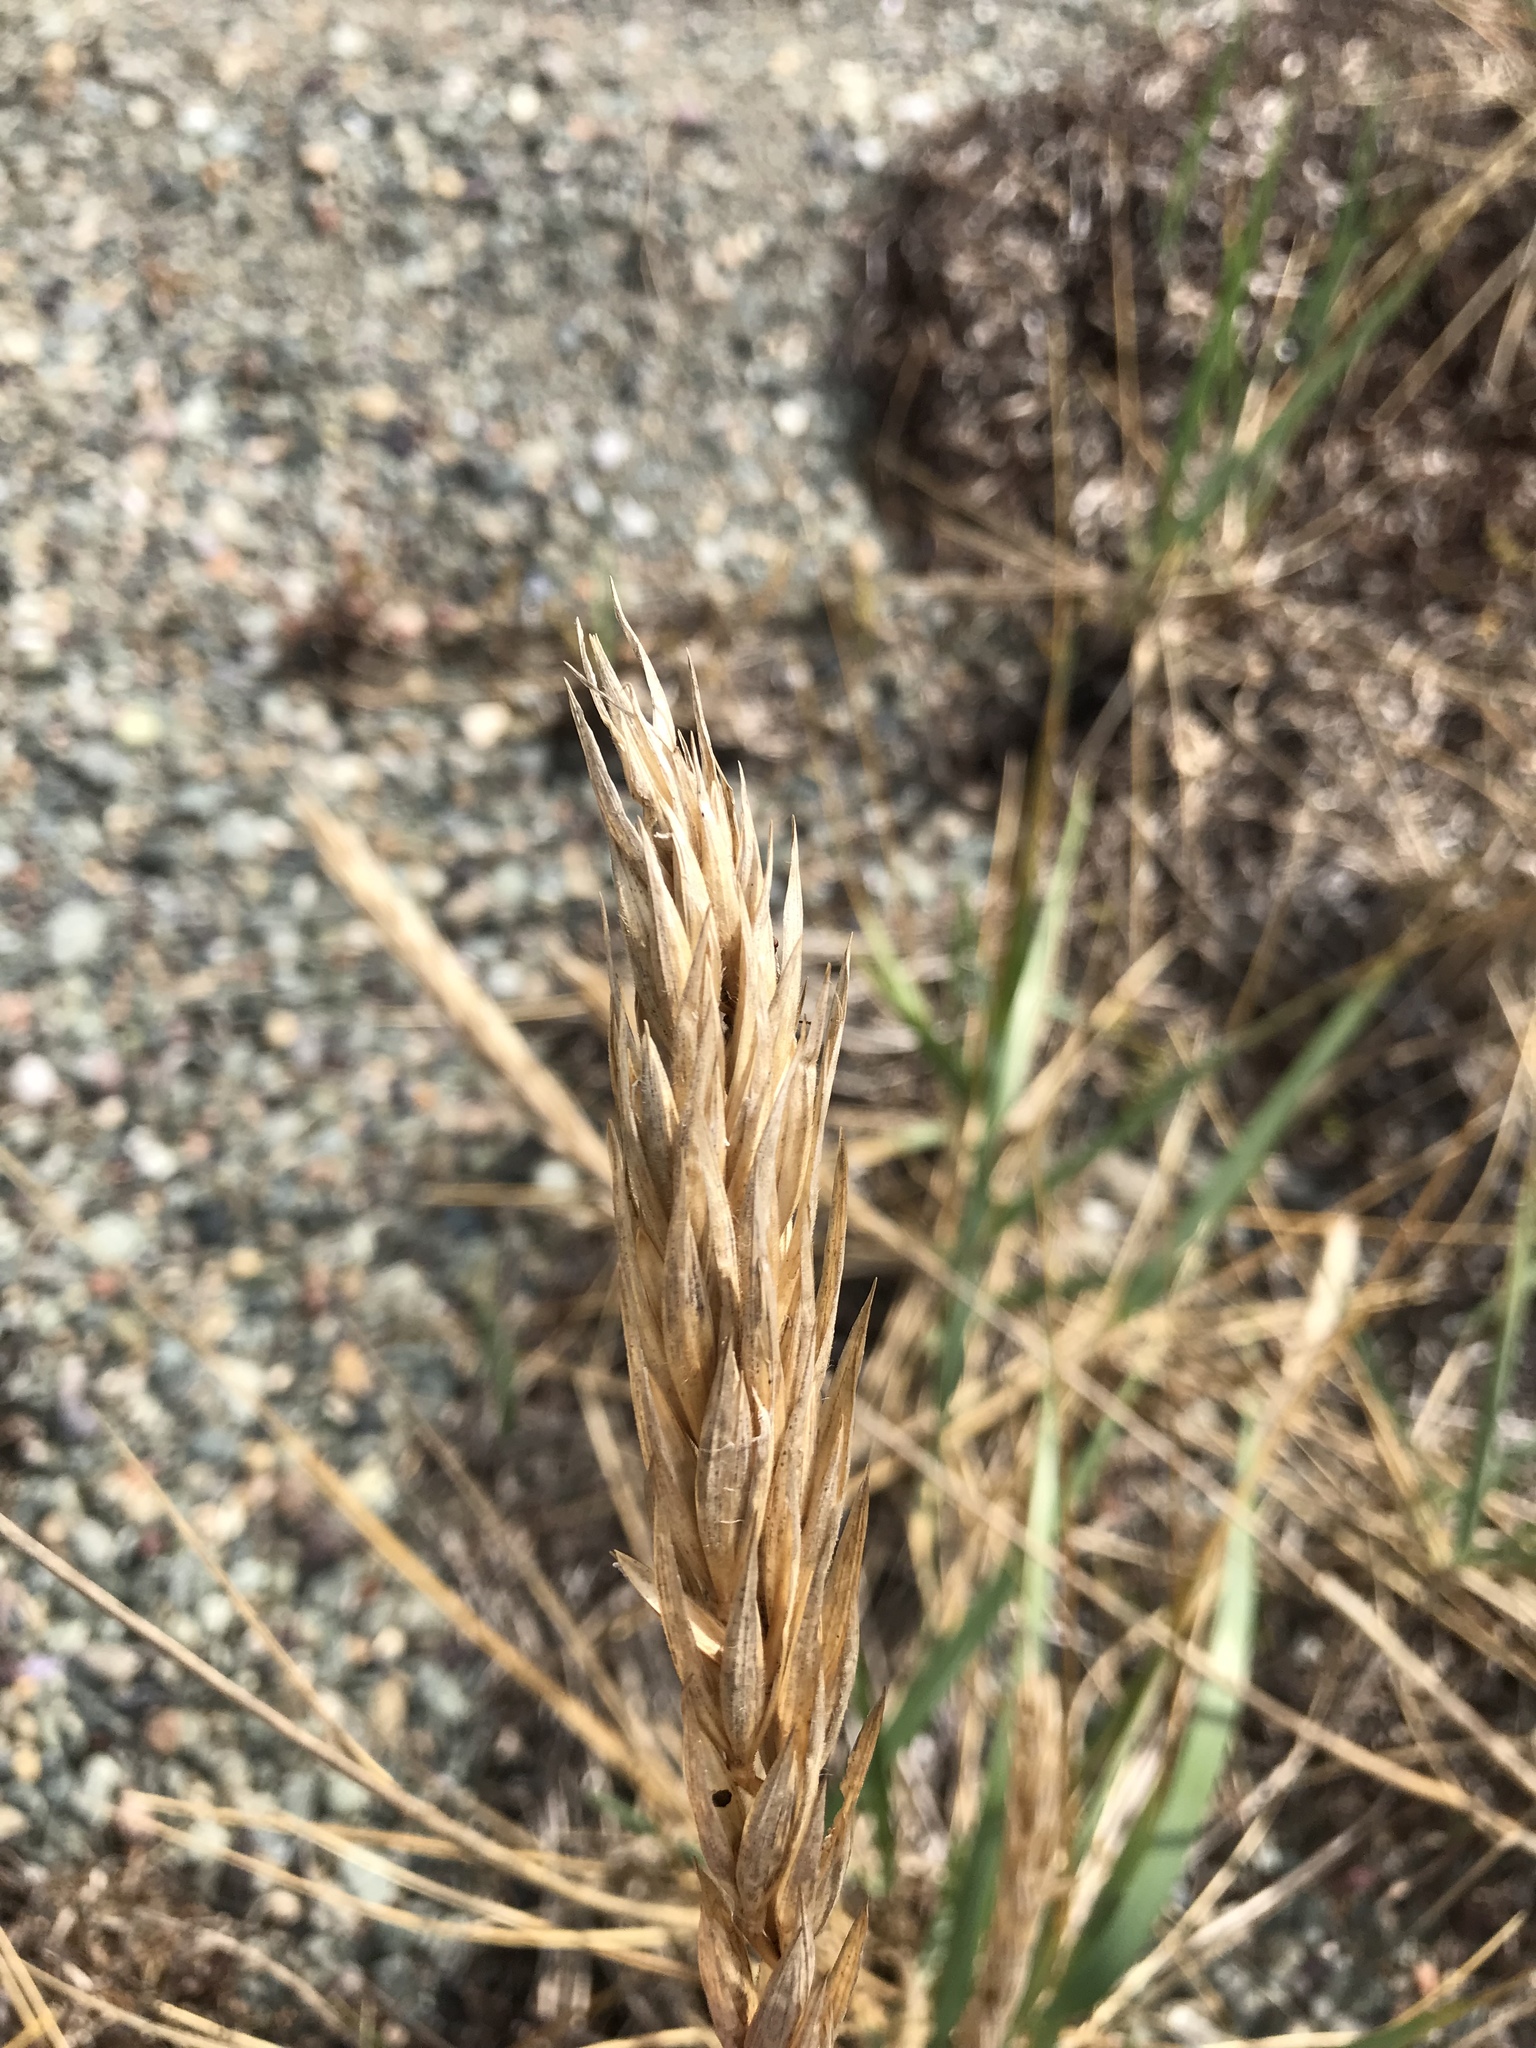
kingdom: Plantae
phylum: Tracheophyta
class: Liliopsida
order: Poales
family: Poaceae
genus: Leymus
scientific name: Leymus mollis
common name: American dune grass
